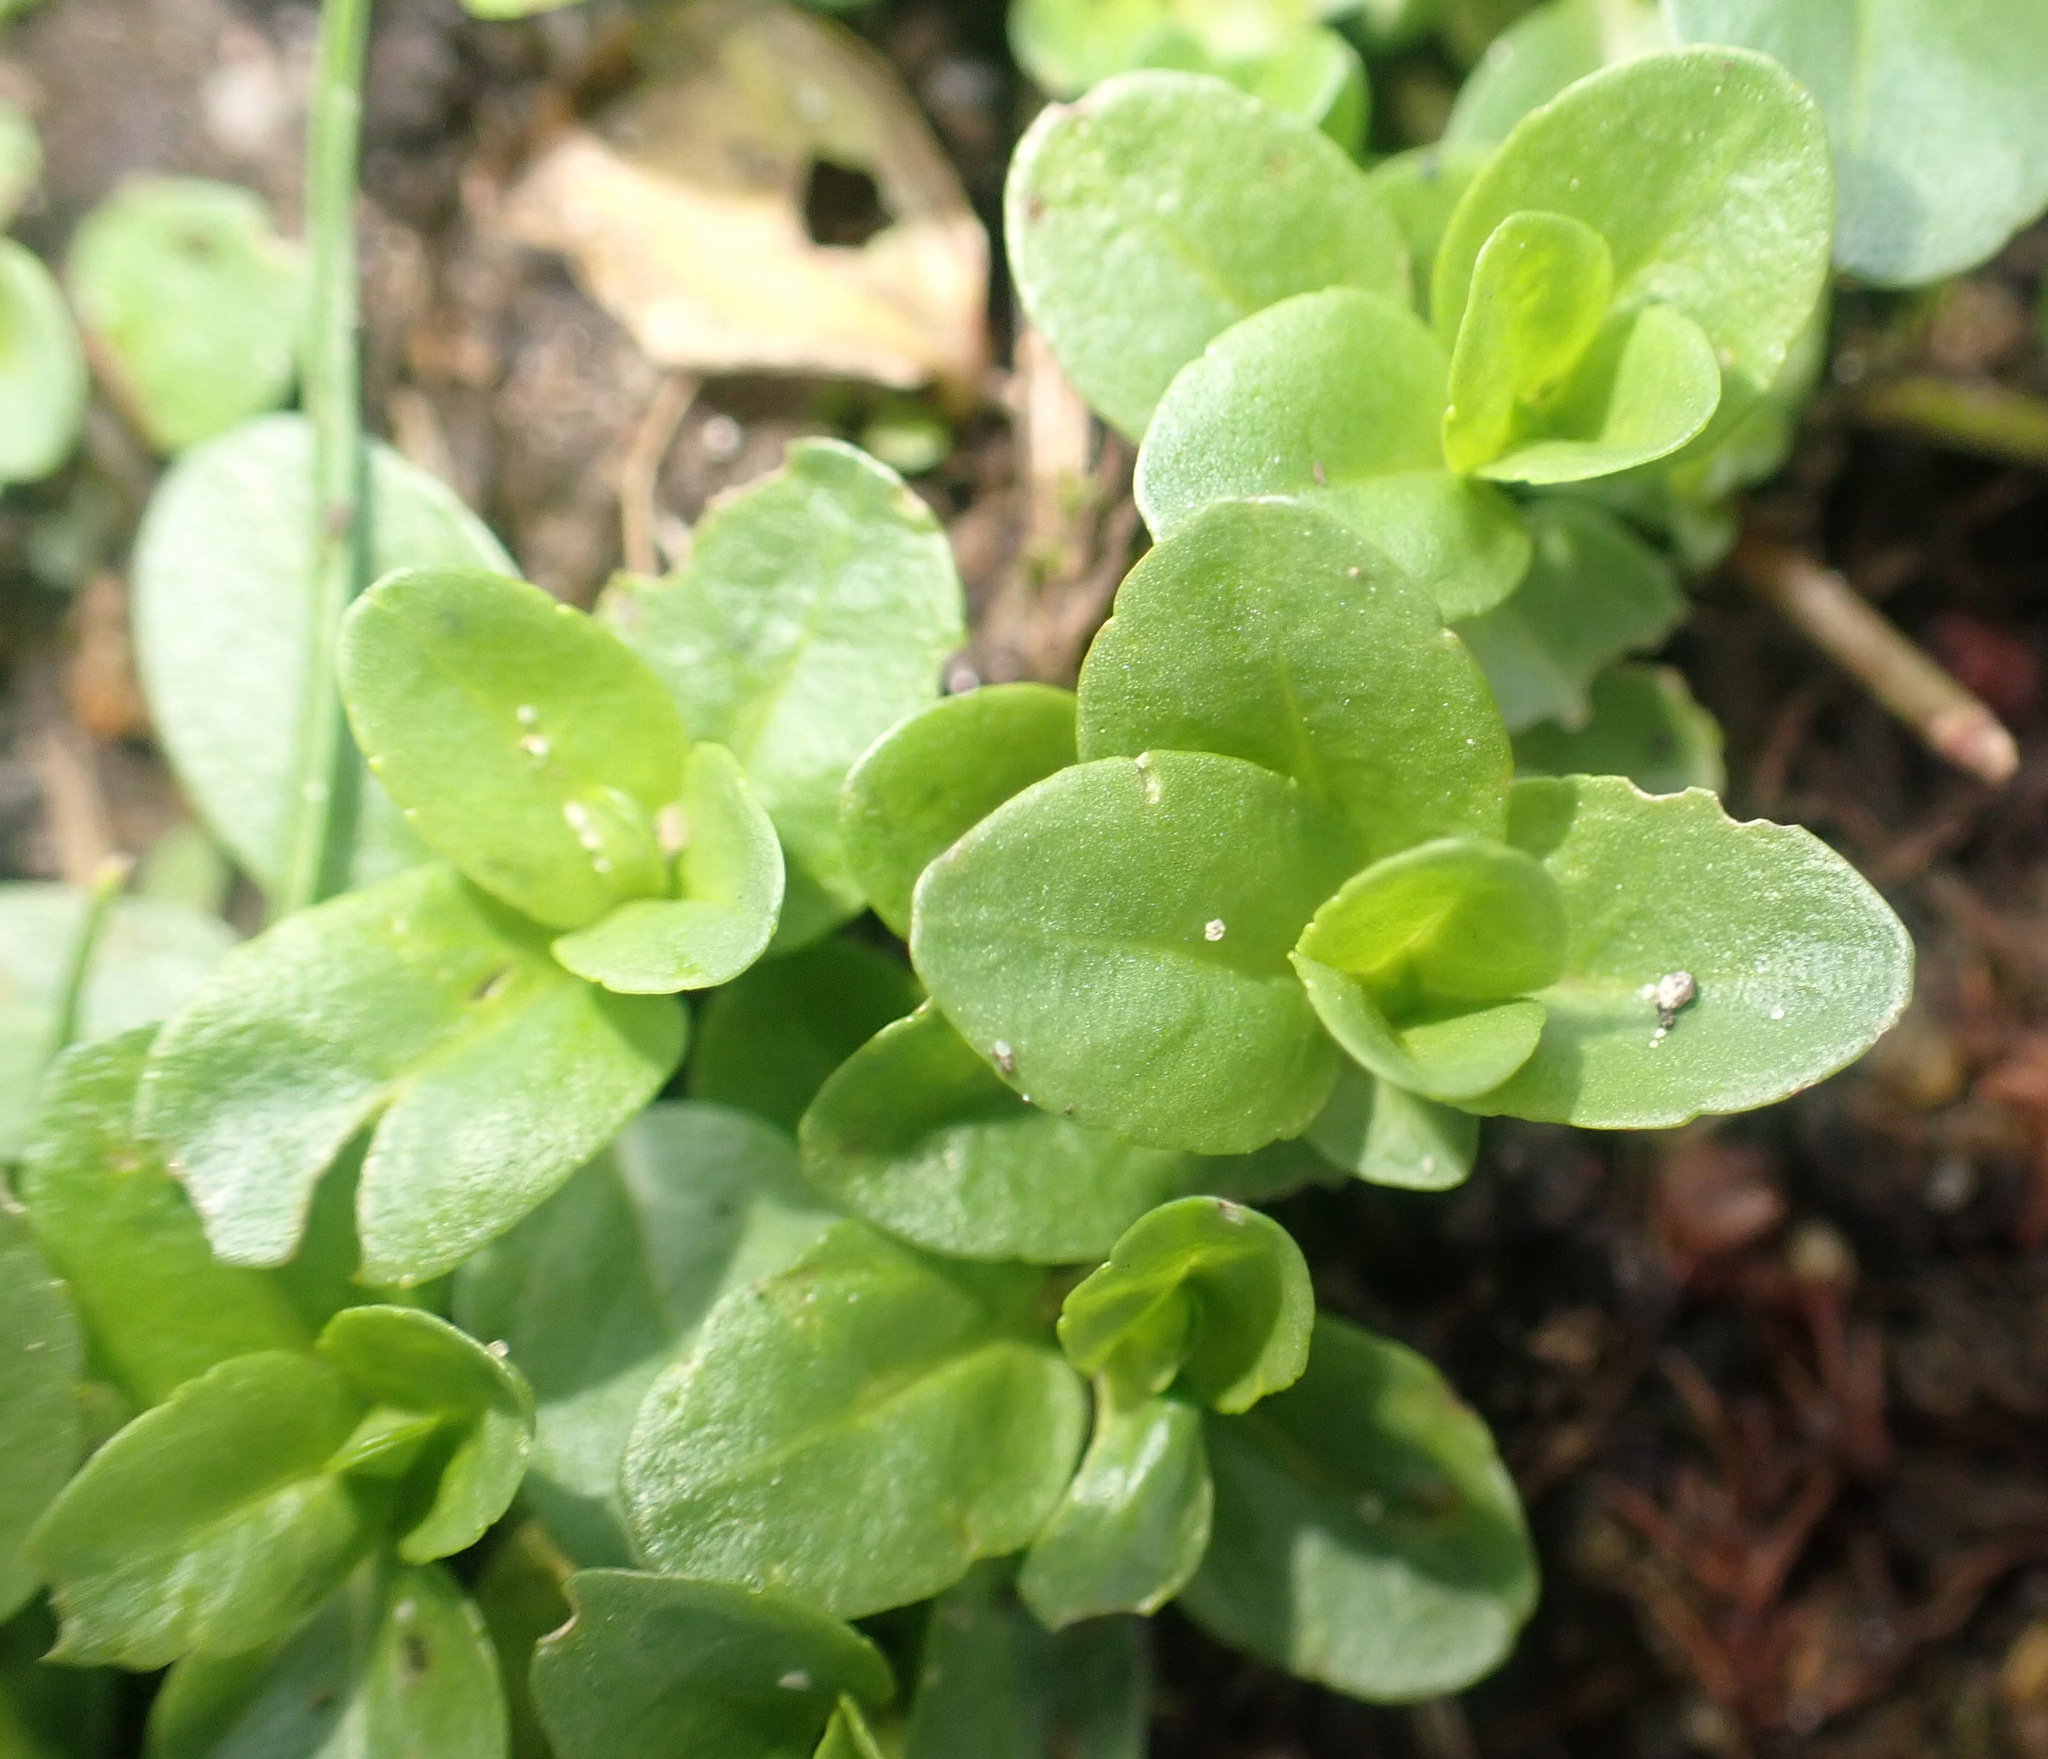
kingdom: Plantae
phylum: Tracheophyta
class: Magnoliopsida
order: Lamiales
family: Plantaginaceae
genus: Veronica
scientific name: Veronica serpyllifolia
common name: Thyme-leaved speedwell
